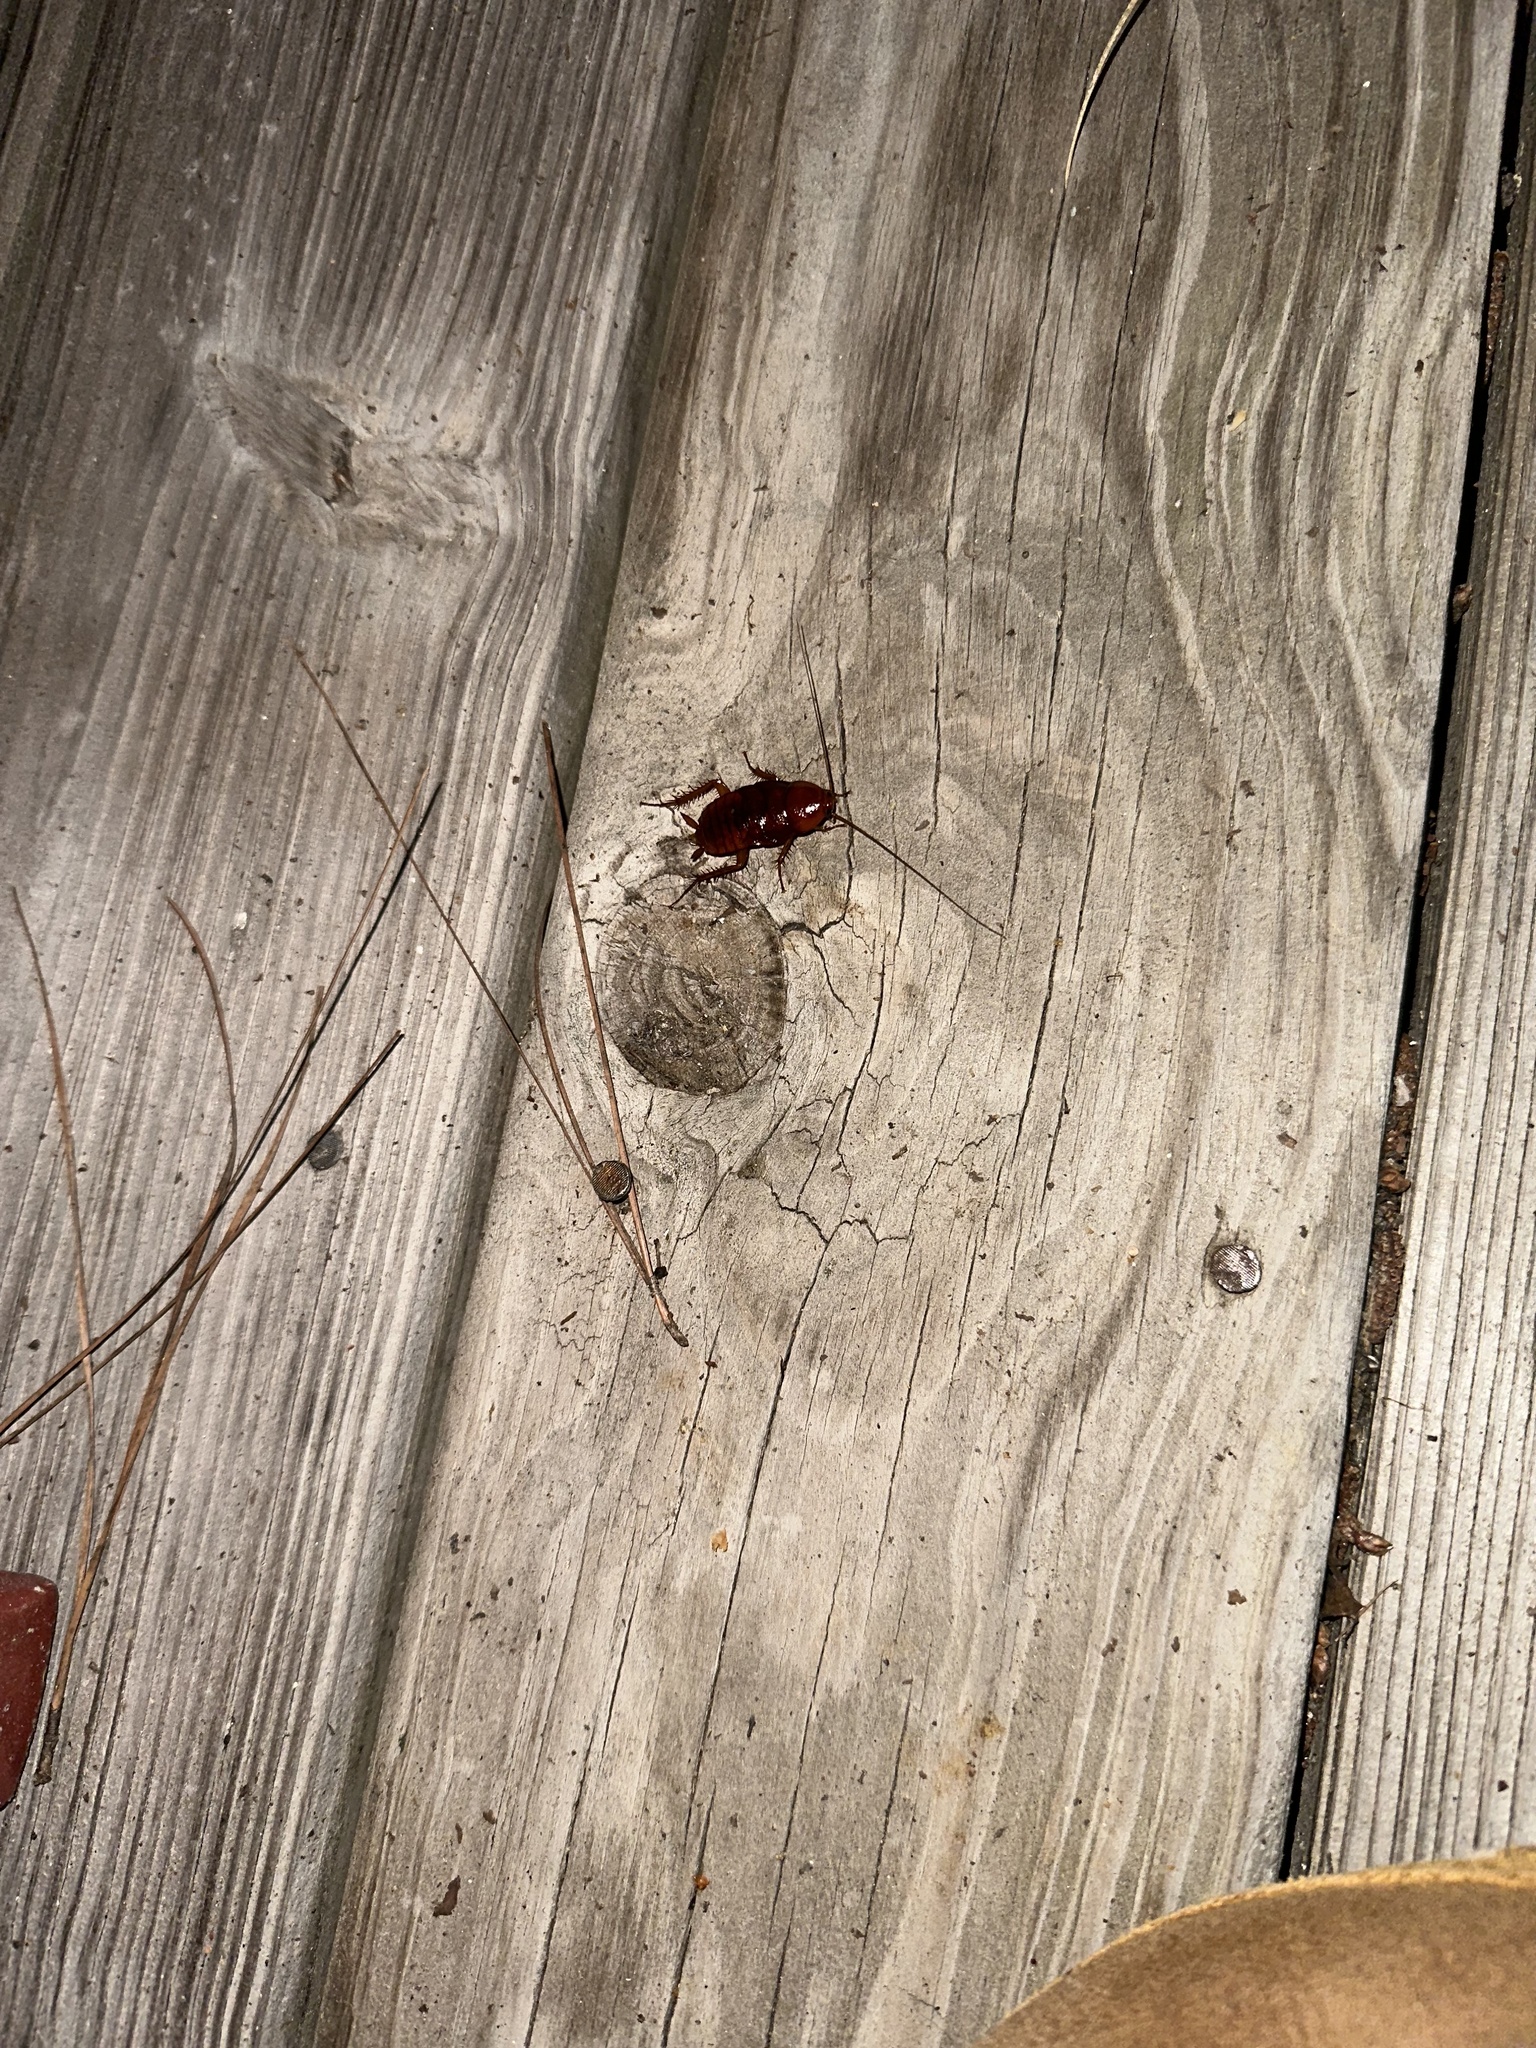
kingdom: Animalia
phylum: Arthropoda
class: Insecta
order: Blattodea
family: Blattidae
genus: Periplaneta
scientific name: Periplaneta fuliginosa
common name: Smokeybrown cockroad
